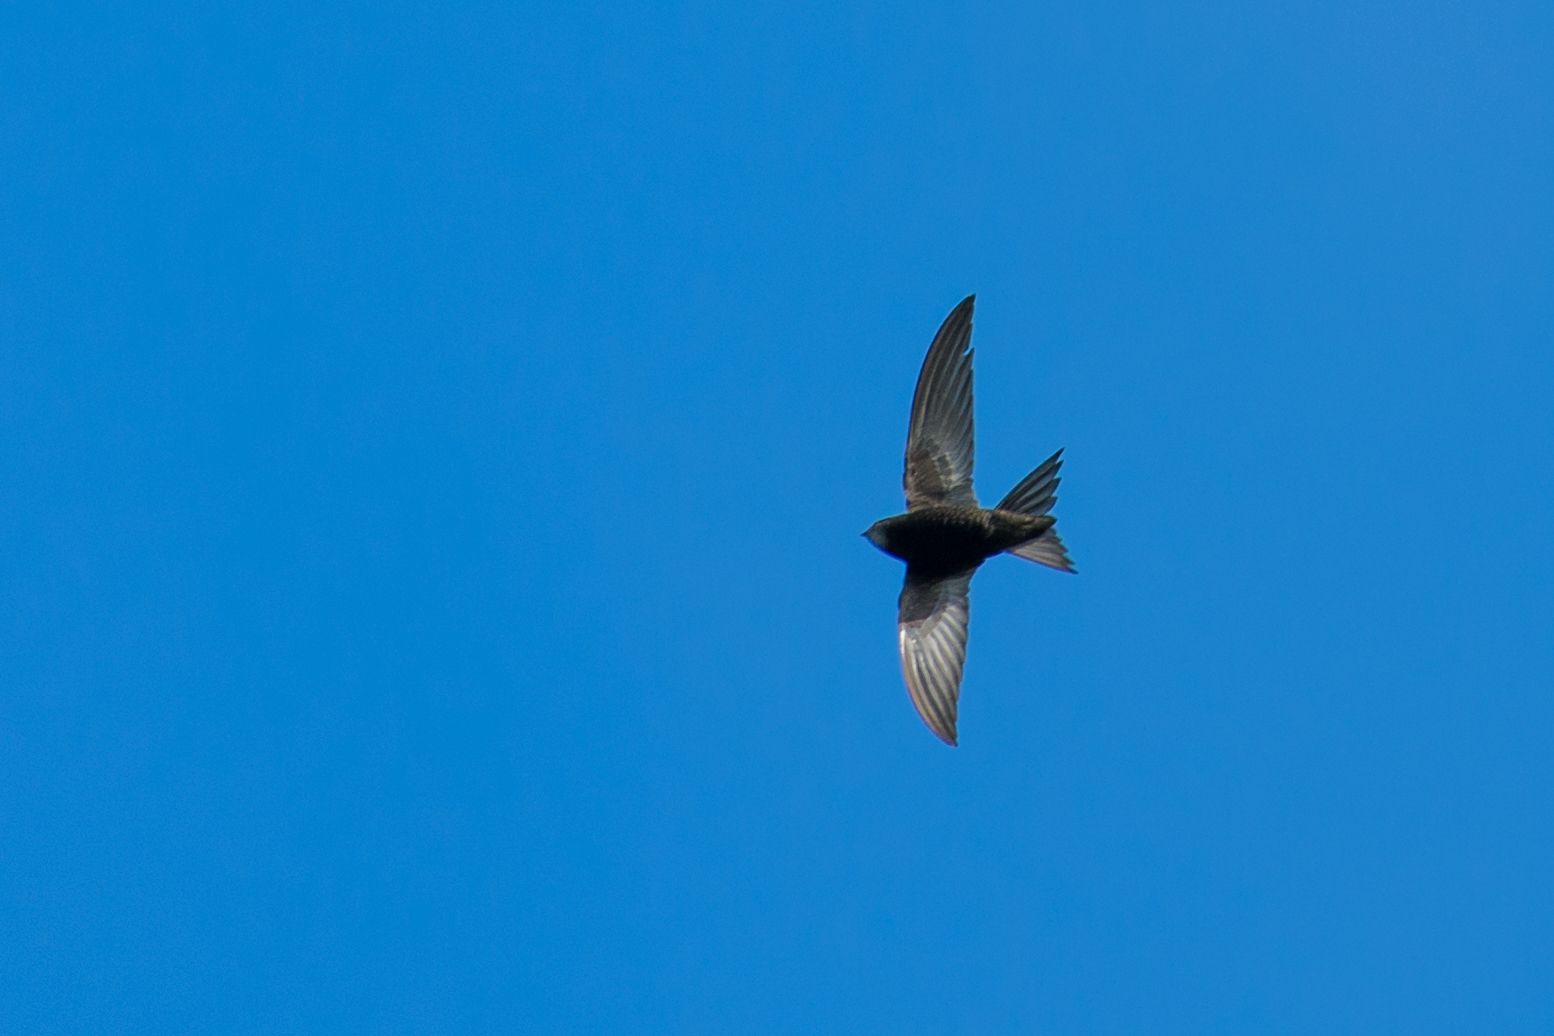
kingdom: Animalia
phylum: Chordata
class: Aves
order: Apodiformes
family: Apodidae
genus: Apus
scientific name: Apus apus
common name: Common swift
